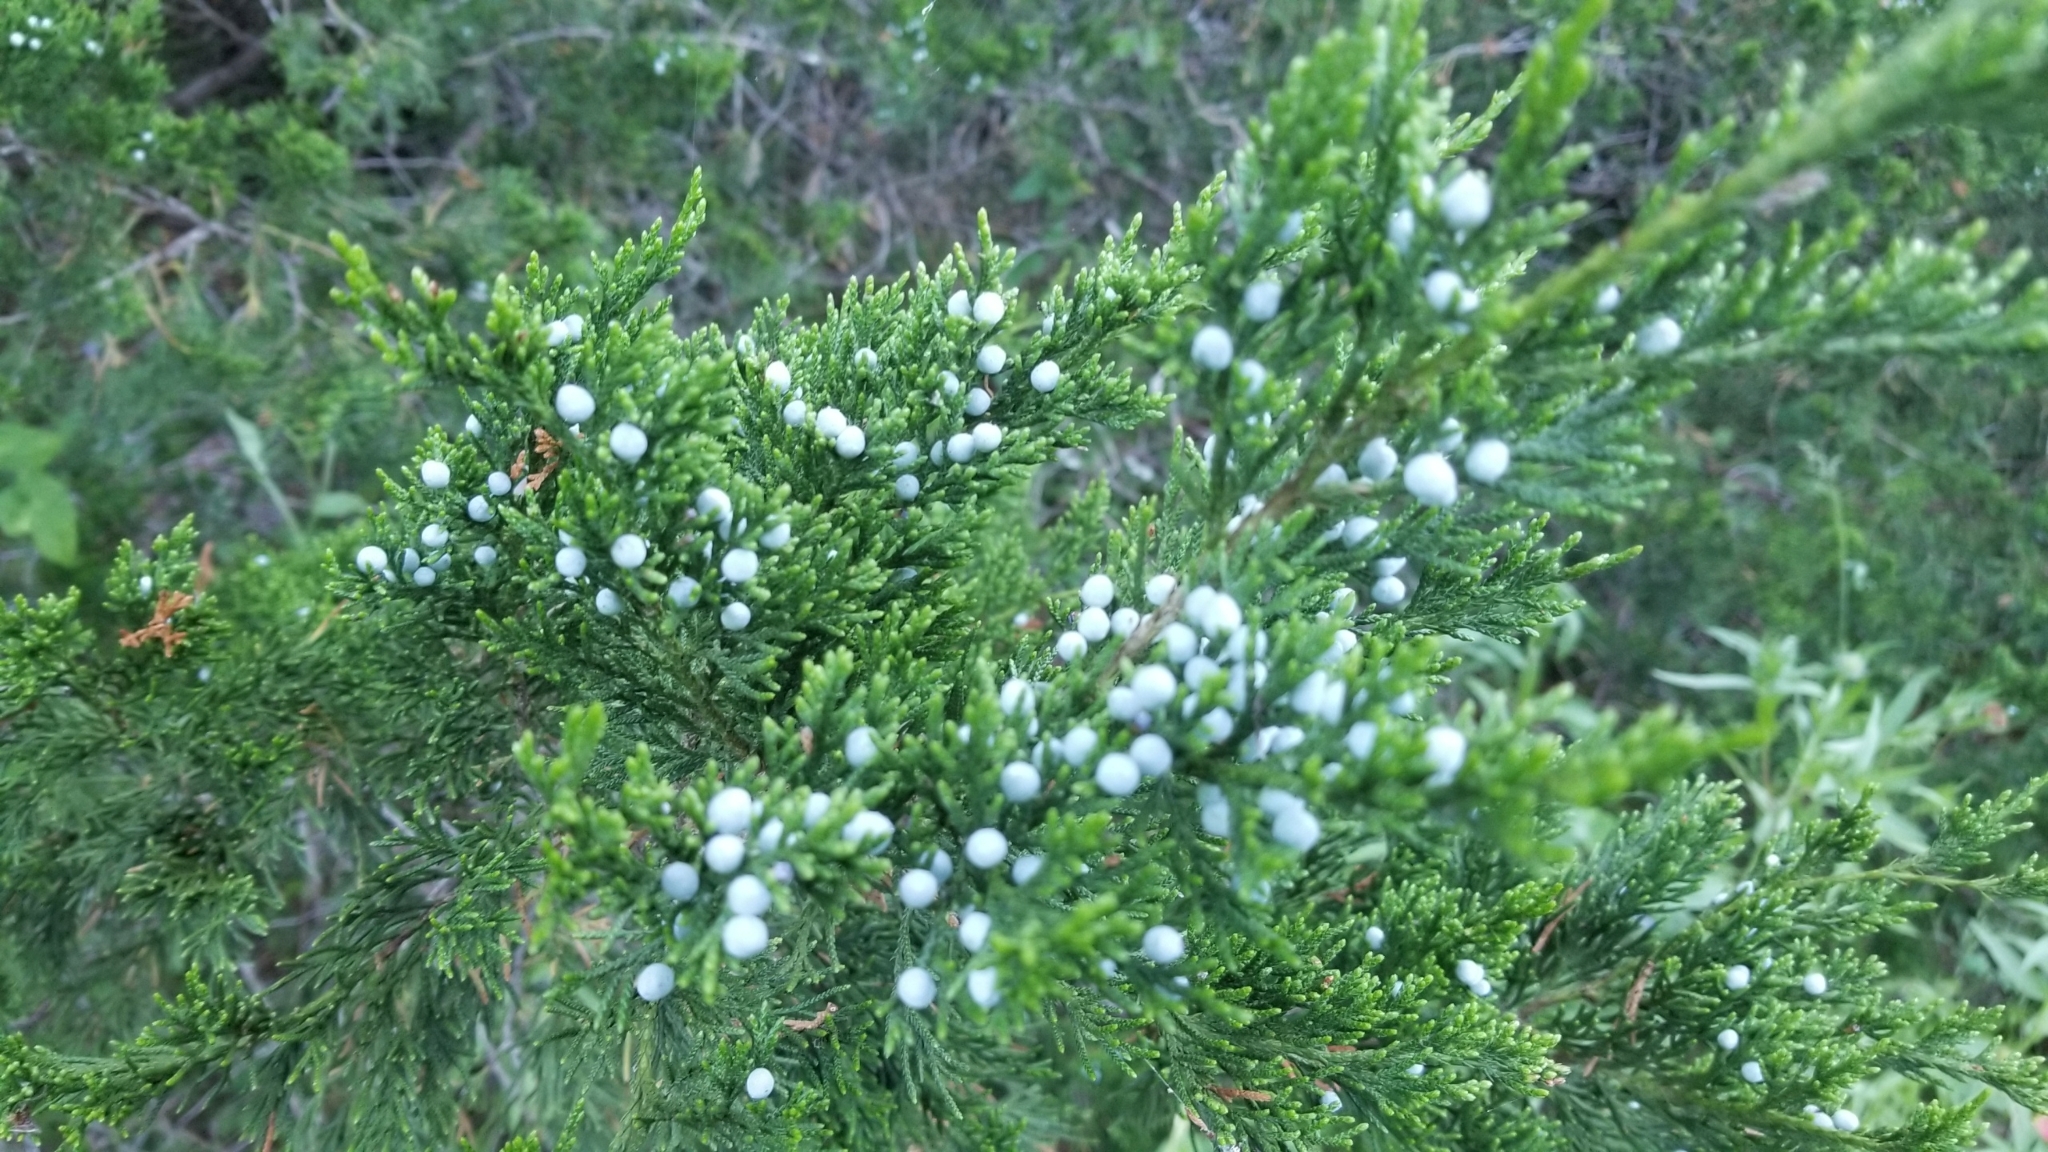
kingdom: Plantae
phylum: Tracheophyta
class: Pinopsida
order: Pinales
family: Cupressaceae
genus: Juniperus
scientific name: Juniperus virginiana
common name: Red juniper
